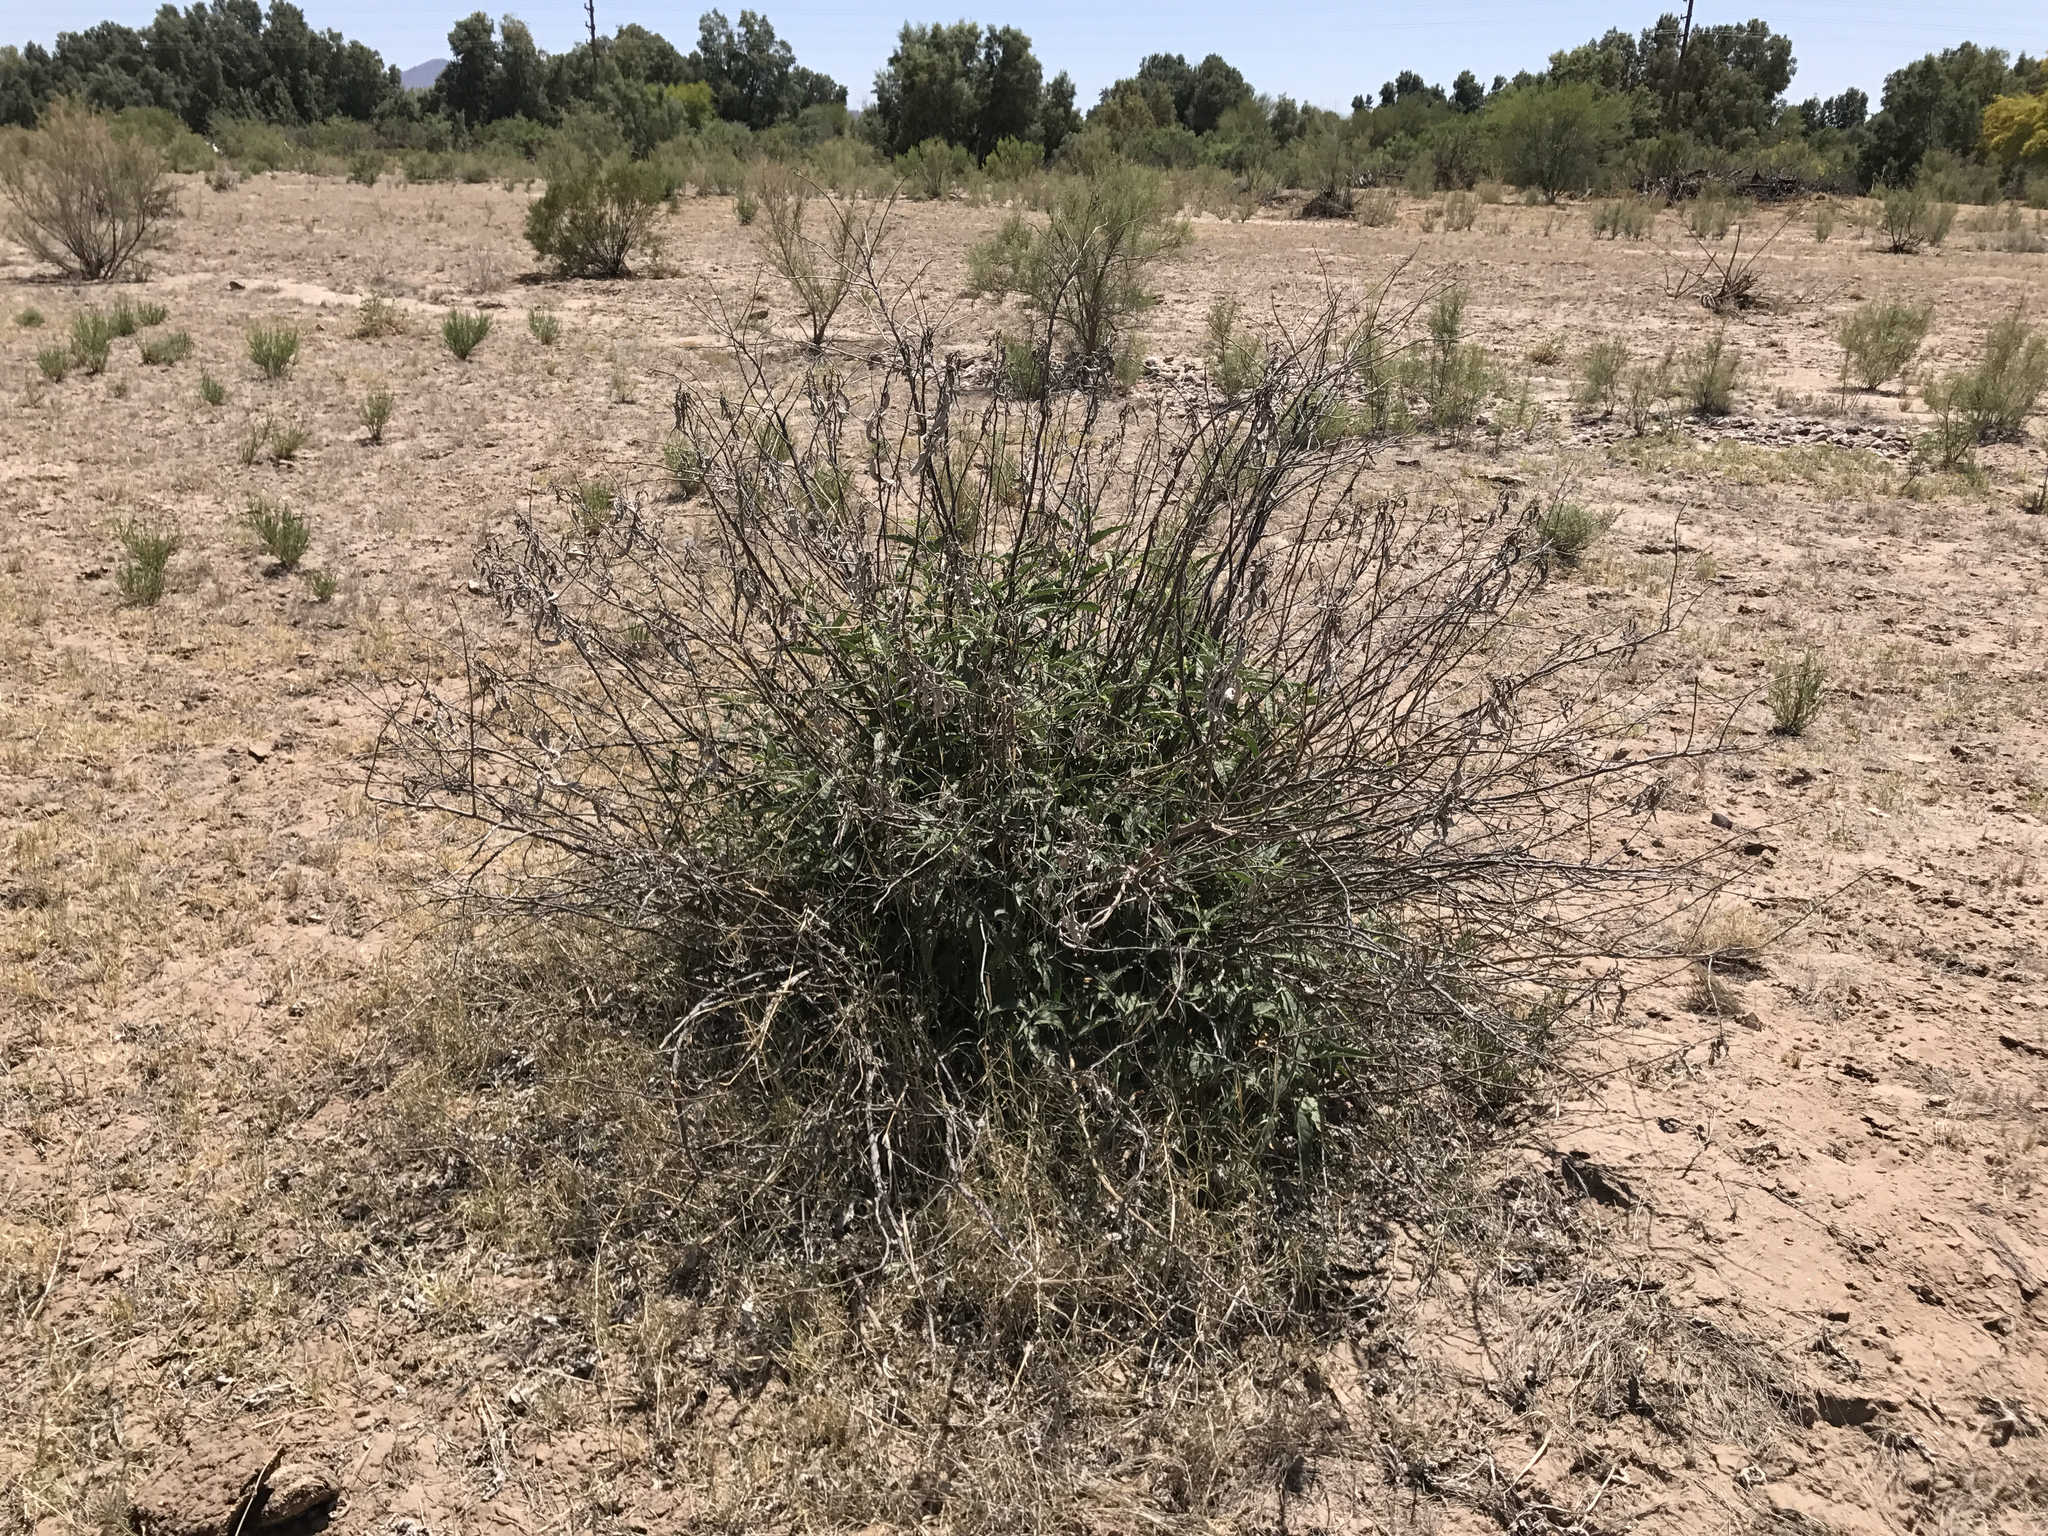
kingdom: Plantae
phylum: Tracheophyta
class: Magnoliopsida
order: Asterales
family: Asteraceae
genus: Ambrosia
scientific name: Ambrosia ambrosioides
